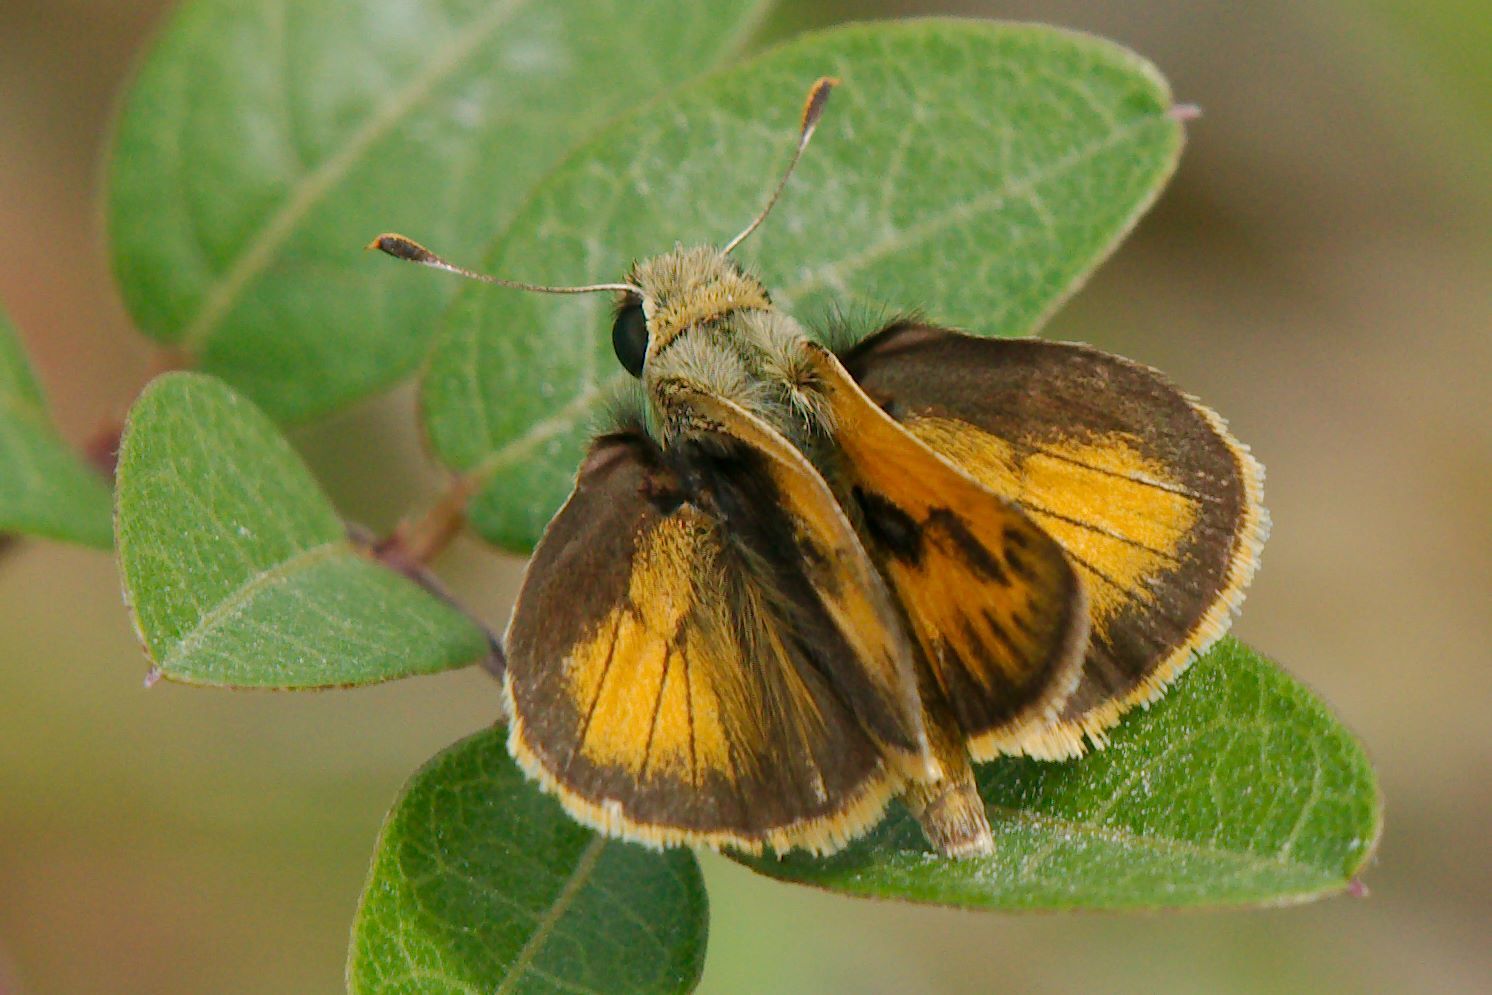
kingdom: Animalia
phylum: Arthropoda
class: Insecta
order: Lepidoptera
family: Hesperiidae
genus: Polites
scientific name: Polites vibex
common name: Whirlabout
